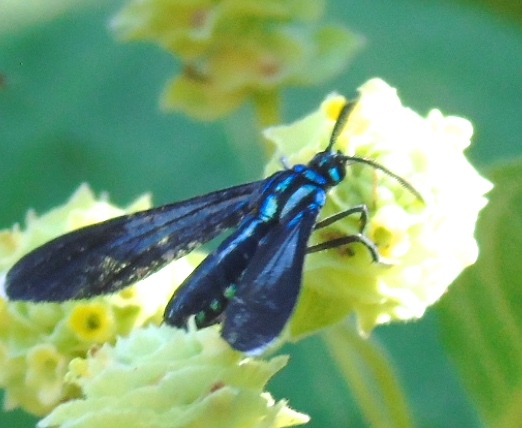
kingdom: Animalia
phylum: Arthropoda
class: Insecta
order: Lepidoptera
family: Erebidae
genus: Uranophora
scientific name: Uranophora leucotela
